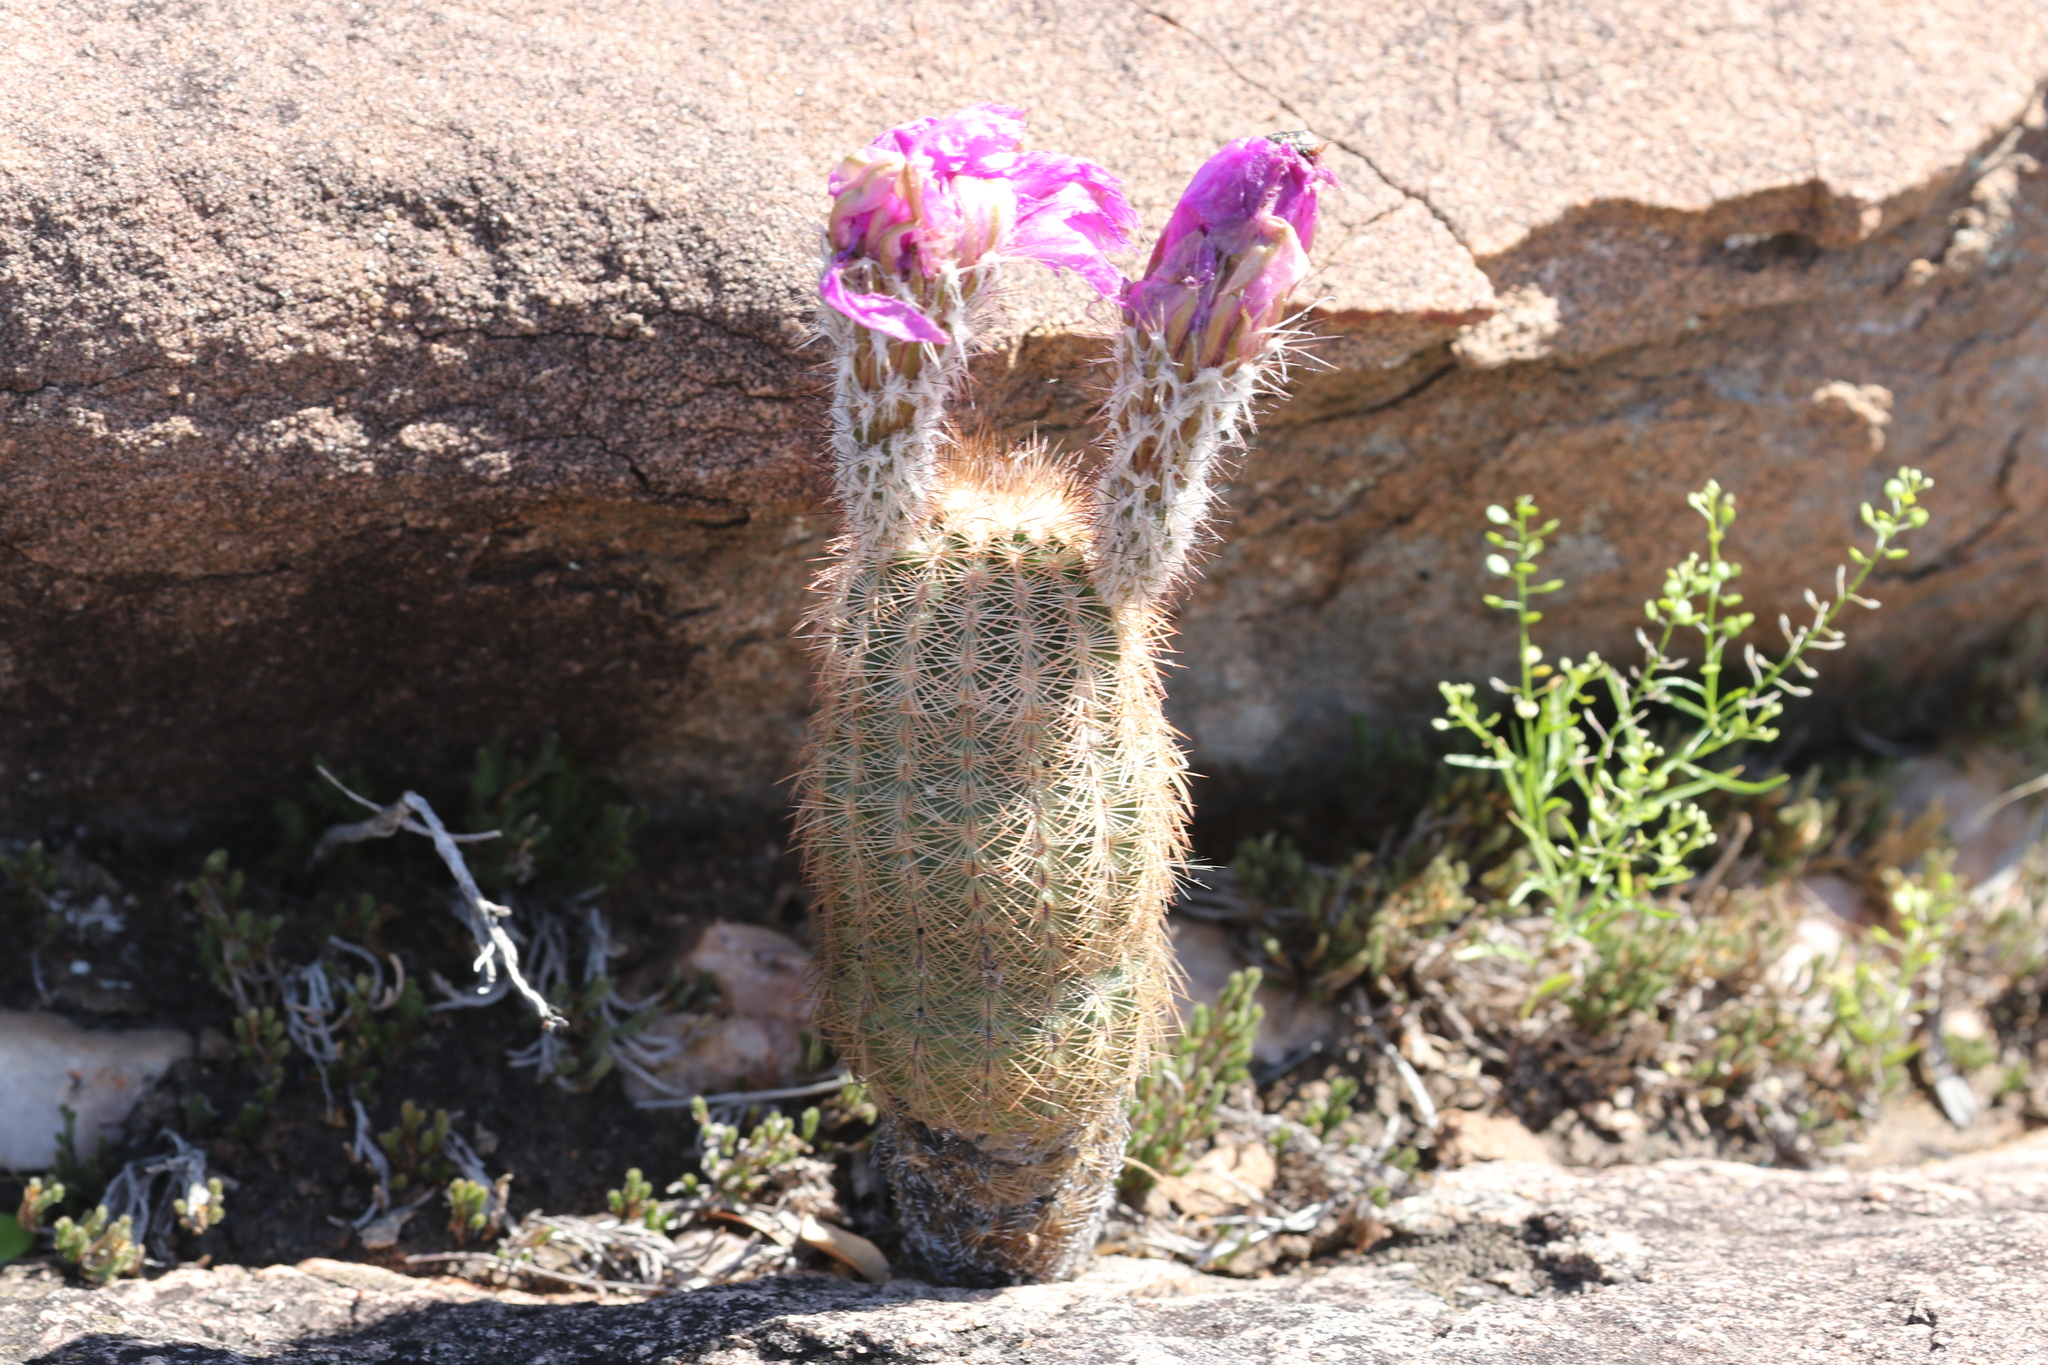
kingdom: Plantae
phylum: Tracheophyta
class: Magnoliopsida
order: Caryophyllales
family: Cactaceae
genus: Echinocereus
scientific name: Echinocereus reichenbachii
